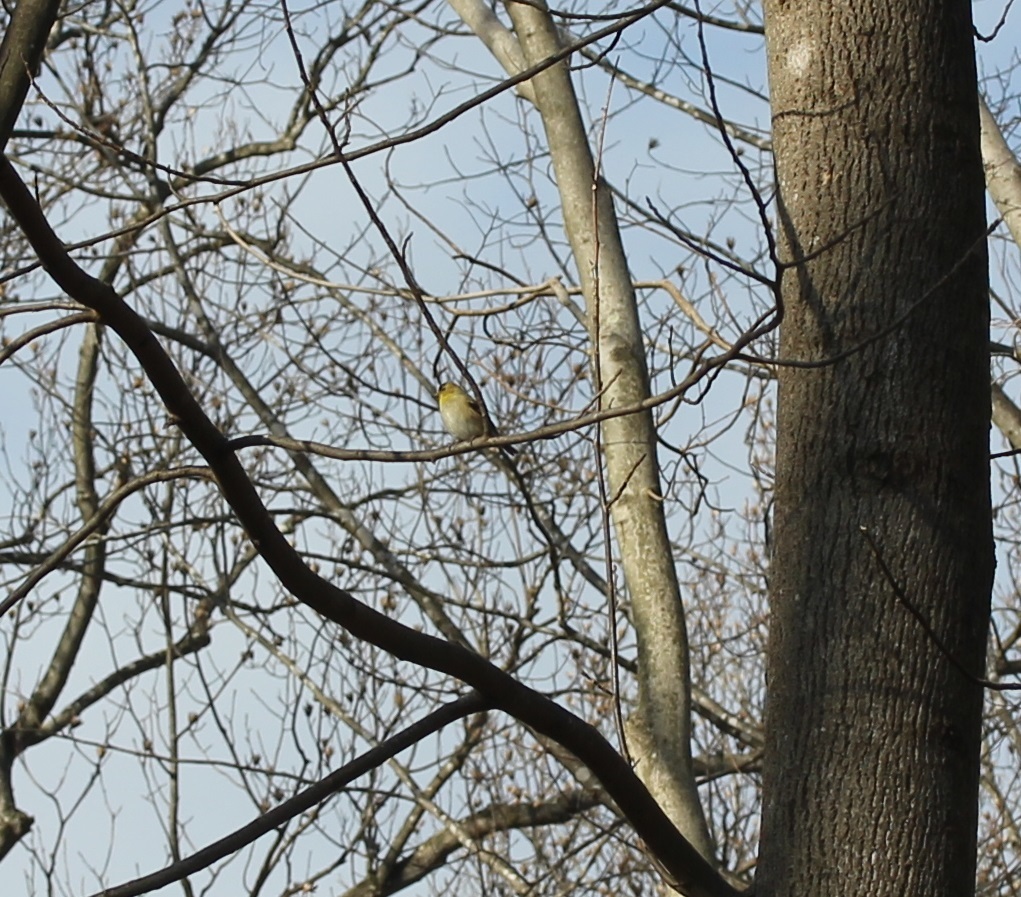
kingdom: Animalia
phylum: Chordata
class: Aves
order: Passeriformes
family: Fringillidae
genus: Spinus
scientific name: Spinus tristis
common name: American goldfinch
